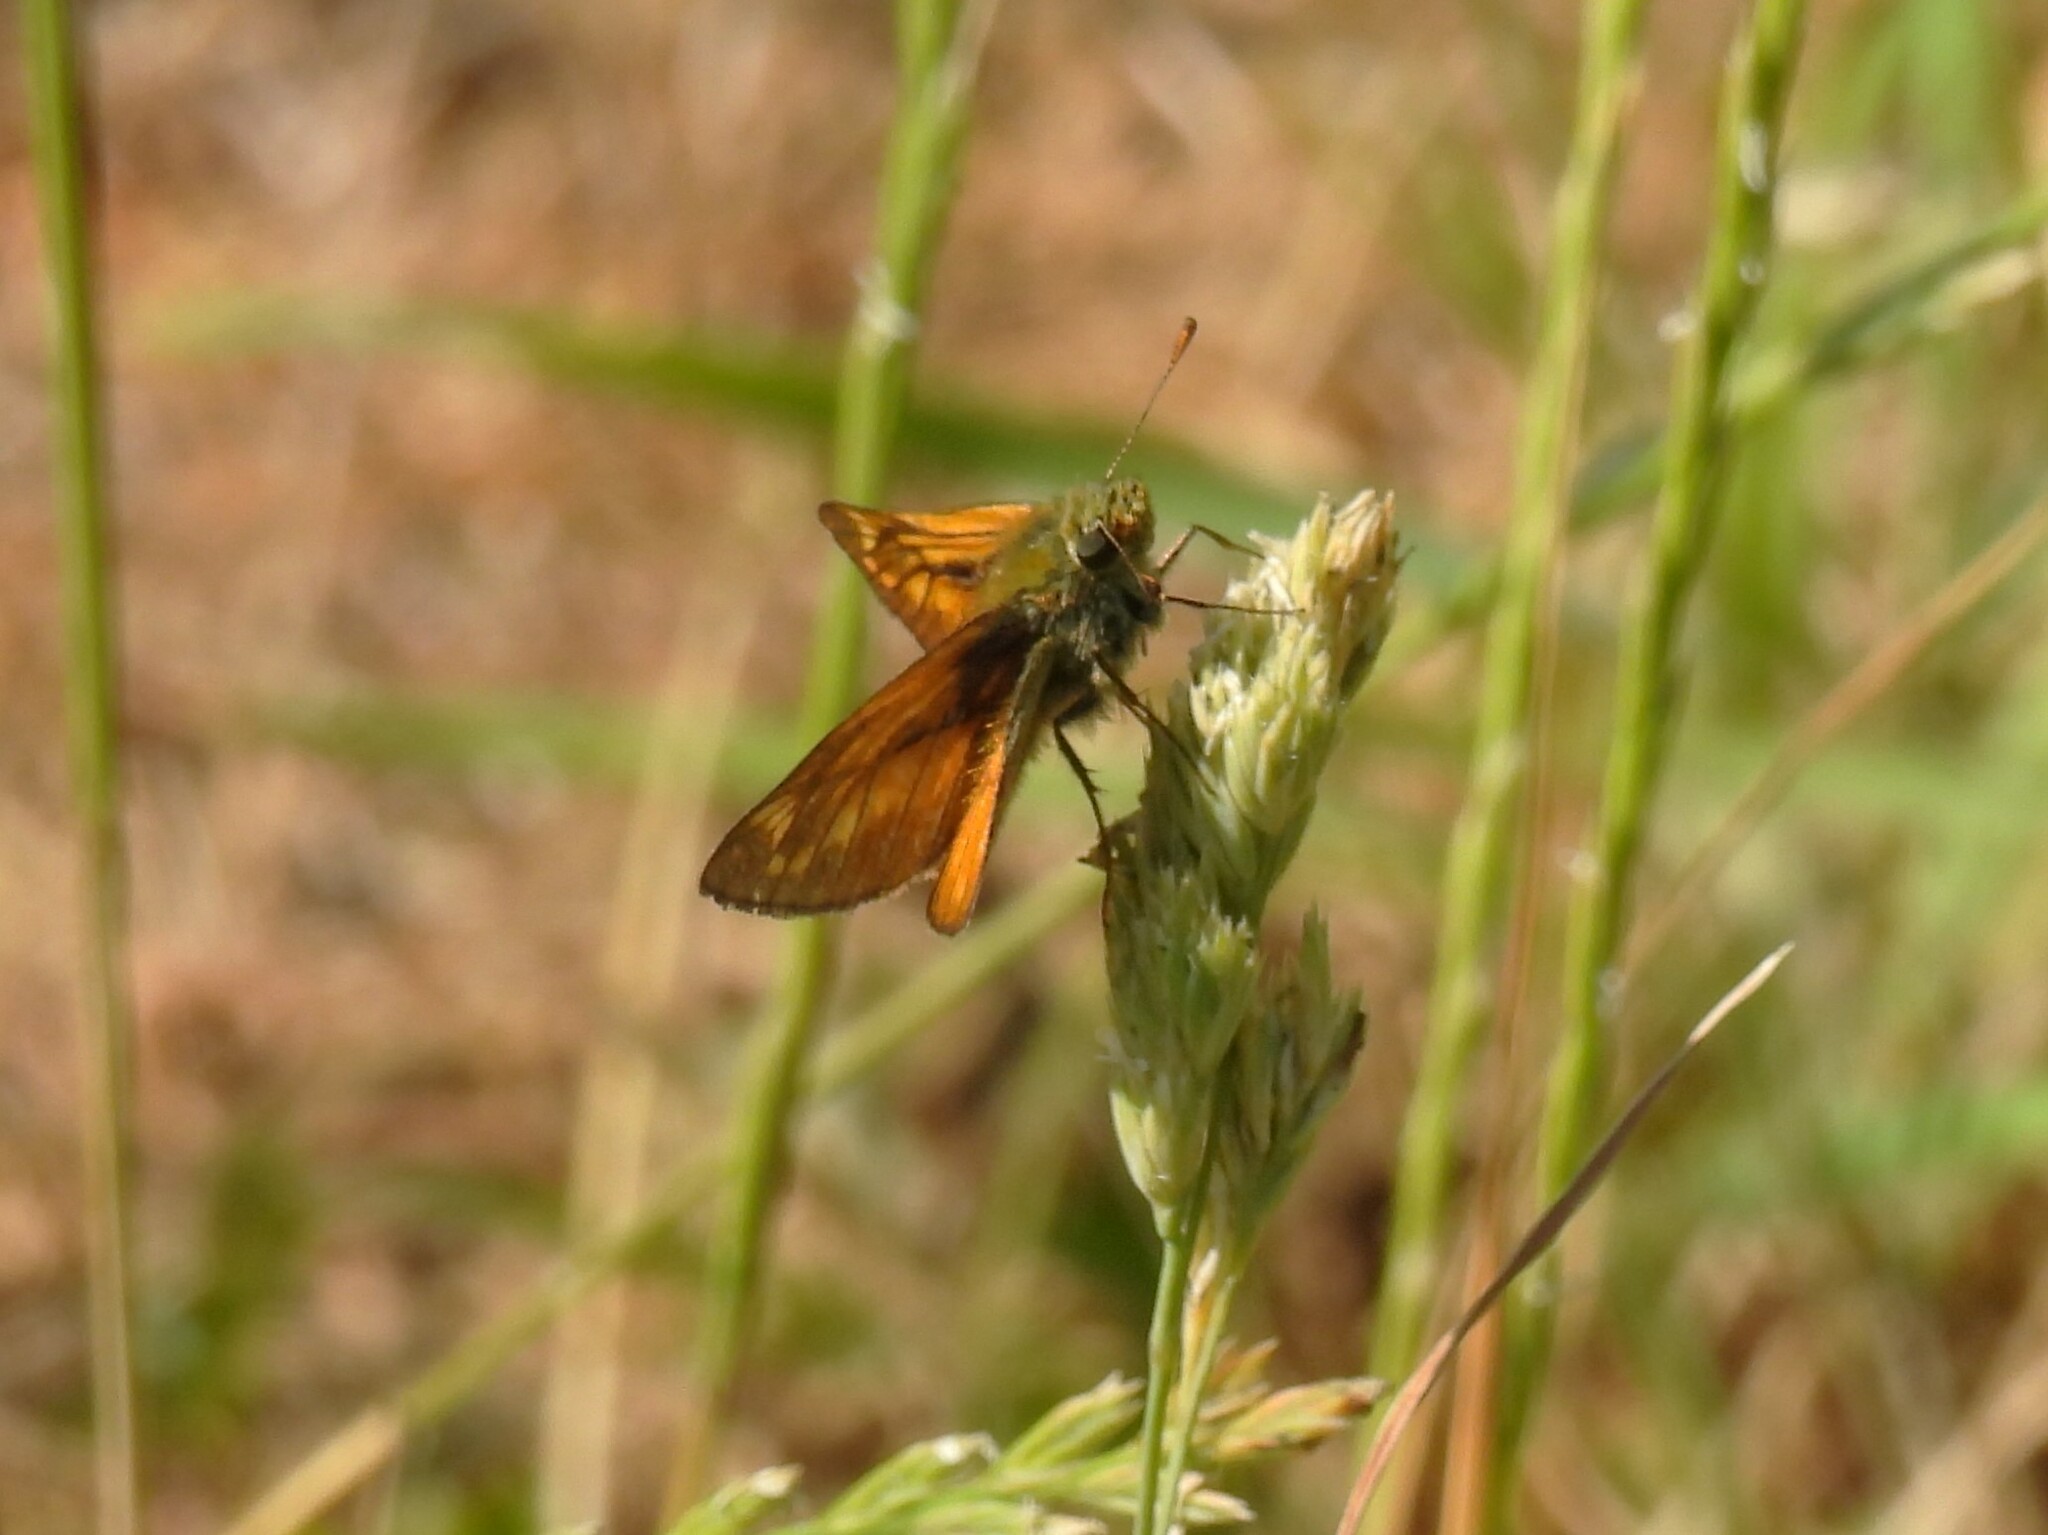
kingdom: Animalia
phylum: Arthropoda
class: Insecta
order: Lepidoptera
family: Hesperiidae
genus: Ochlodes
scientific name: Ochlodes venata
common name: Large skipper
